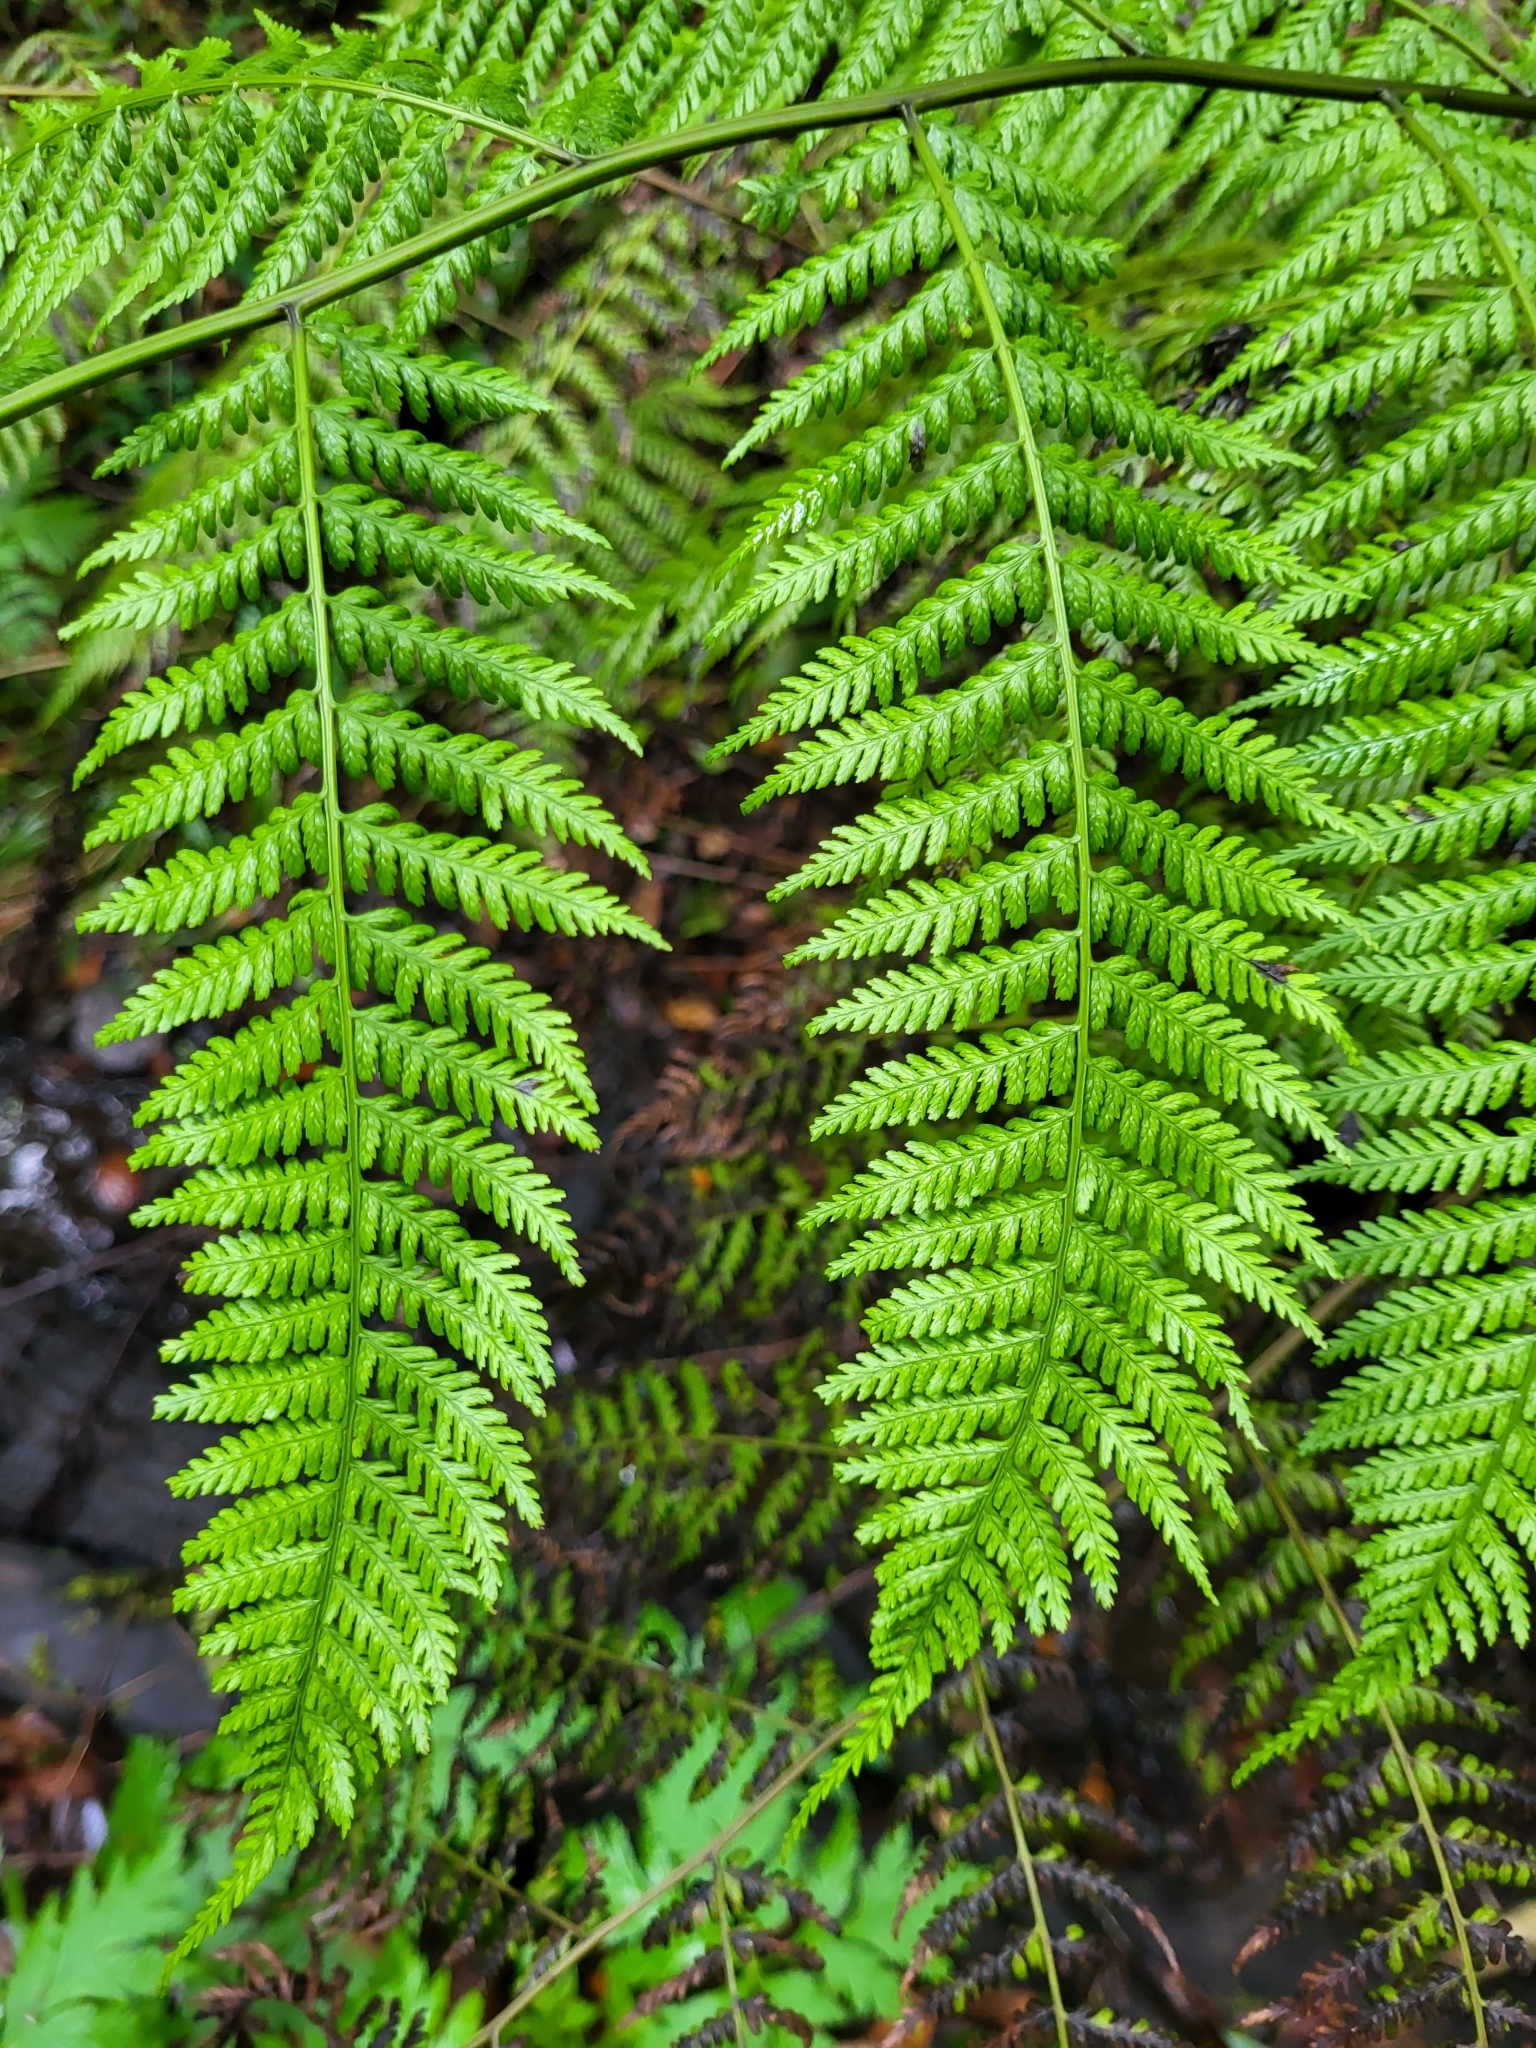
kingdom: Plantae
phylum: Tracheophyta
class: Polypodiopsida
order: Polypodiales
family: Athyriaceae
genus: Diplazium
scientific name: Diplazium caudatum
